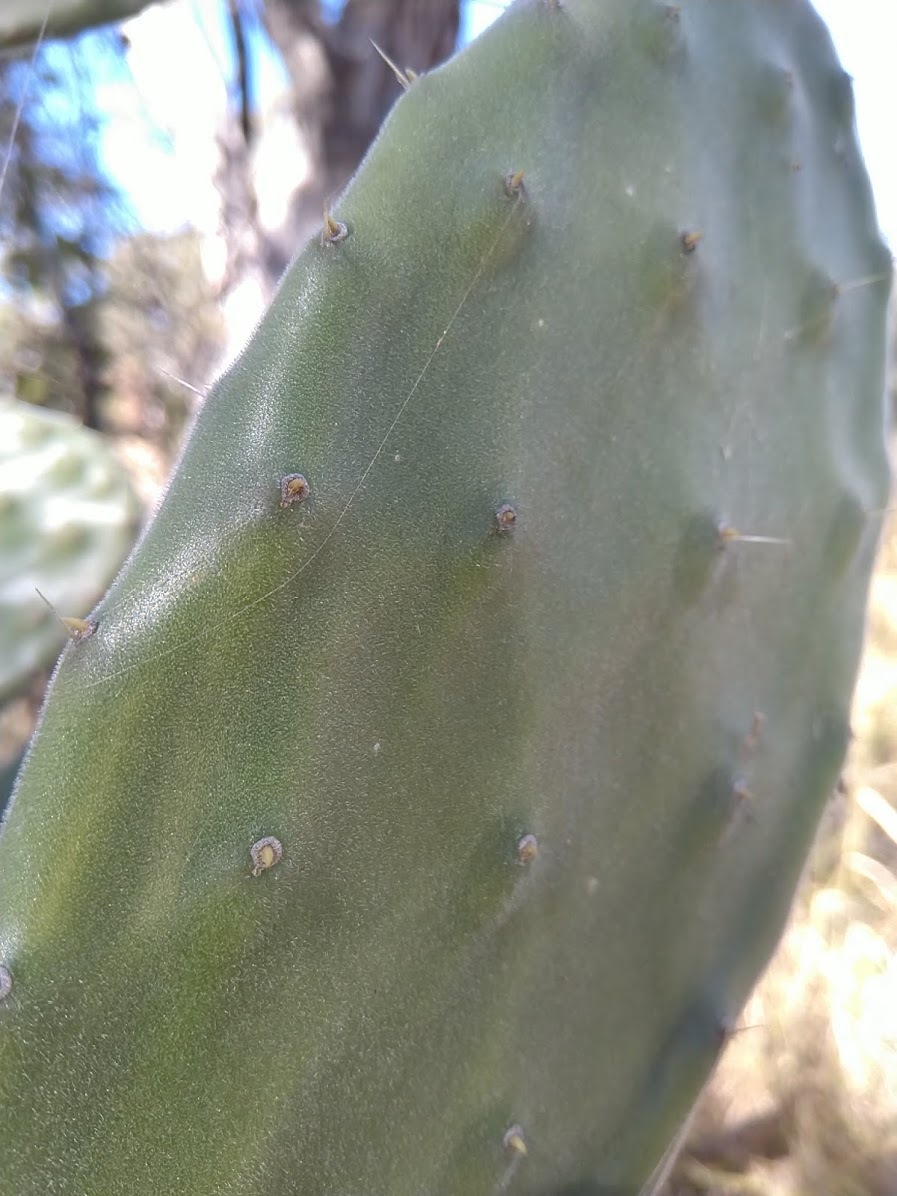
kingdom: Plantae
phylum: Tracheophyta
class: Magnoliopsida
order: Caryophyllales
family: Cactaceae
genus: Opuntia
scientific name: Opuntia tomentosa
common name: Woollyjoint pricklypear
